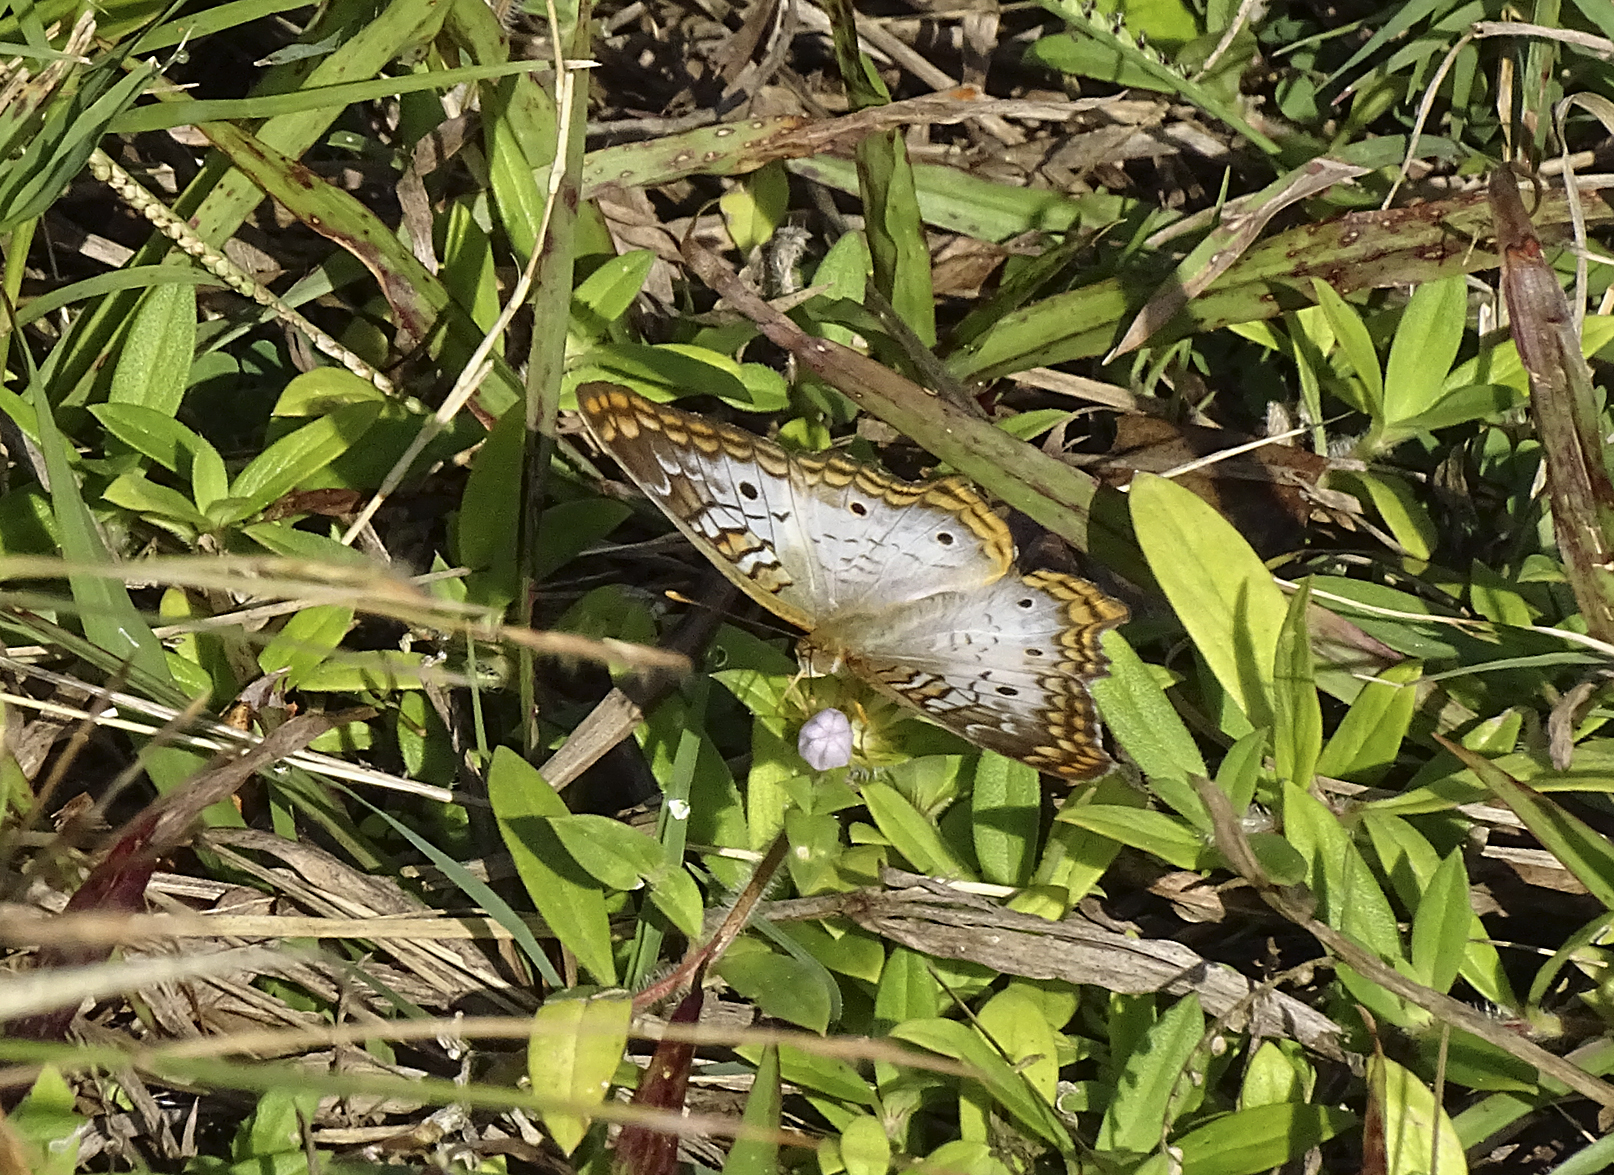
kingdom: Animalia
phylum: Arthropoda
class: Insecta
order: Lepidoptera
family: Nymphalidae
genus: Anartia
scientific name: Anartia jatrophae
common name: White peacock
